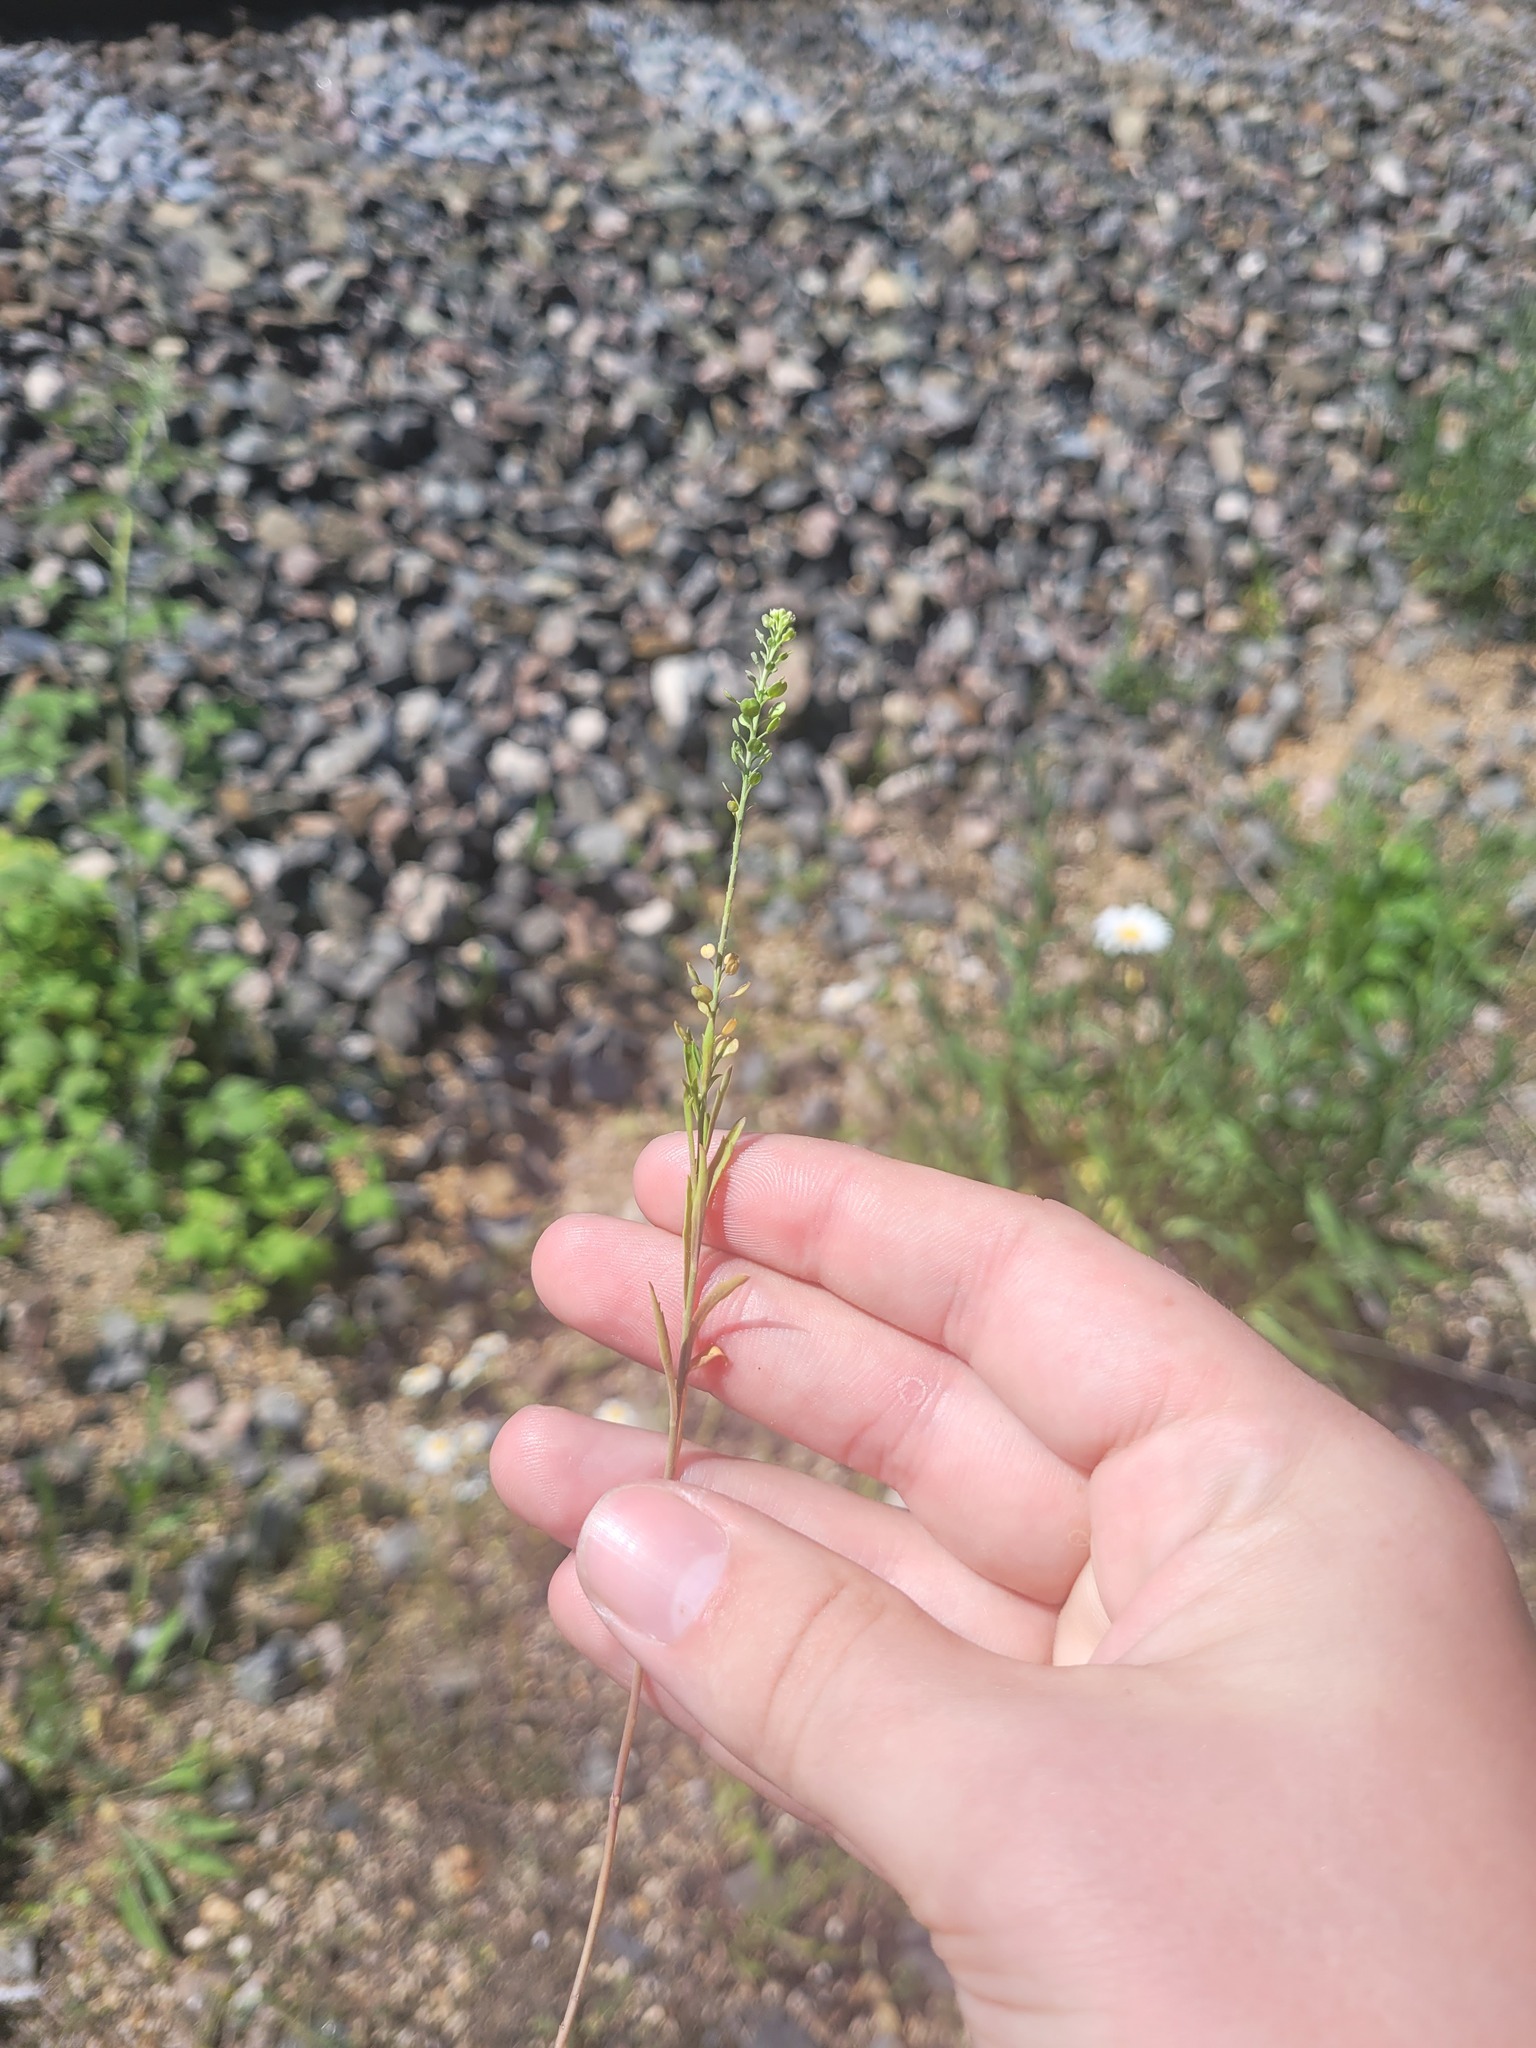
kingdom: Plantae
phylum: Tracheophyta
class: Magnoliopsida
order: Brassicales
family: Brassicaceae
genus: Lepidium
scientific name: Lepidium densiflorum
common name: Miner's pepperwort
